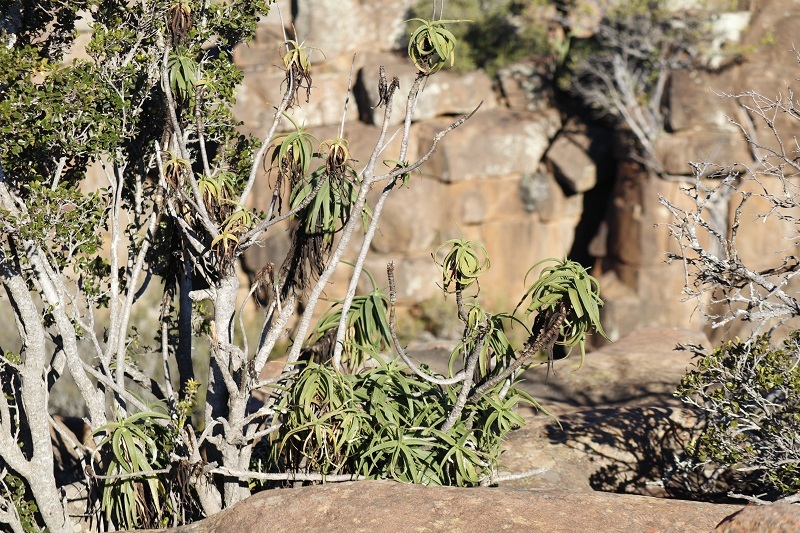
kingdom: Plantae
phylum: Tracheophyta
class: Liliopsida
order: Asparagales
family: Asphodelaceae
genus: Aloiampelos
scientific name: Aloiampelos striatula
